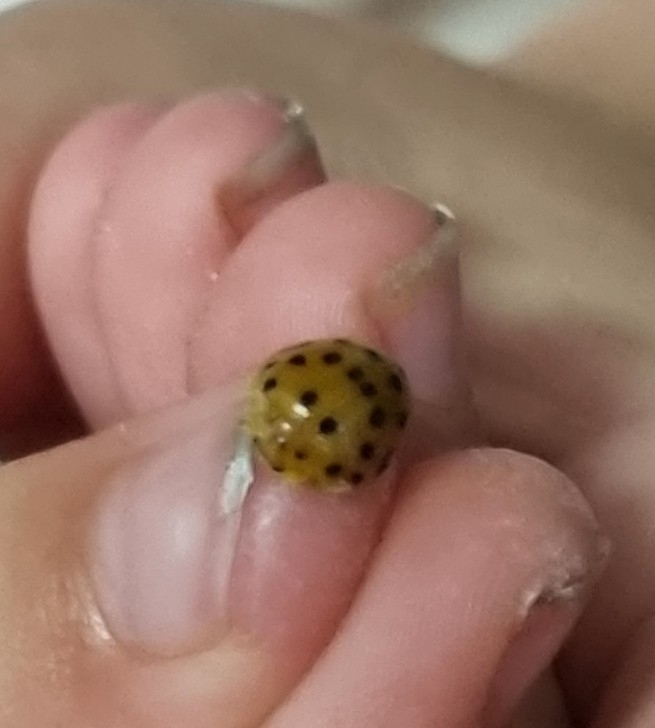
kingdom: Animalia
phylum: Arthropoda
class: Insecta
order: Coleoptera
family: Coccinellidae
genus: Henosepilachna
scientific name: Henosepilachna vigintioctopunctata
